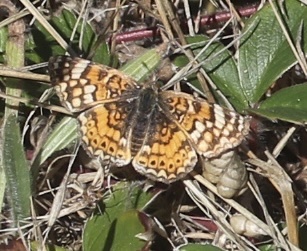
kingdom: Animalia
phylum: Arthropoda
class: Insecta
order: Lepidoptera
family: Nymphalidae
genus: Eresia
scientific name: Eresia aveyrona
